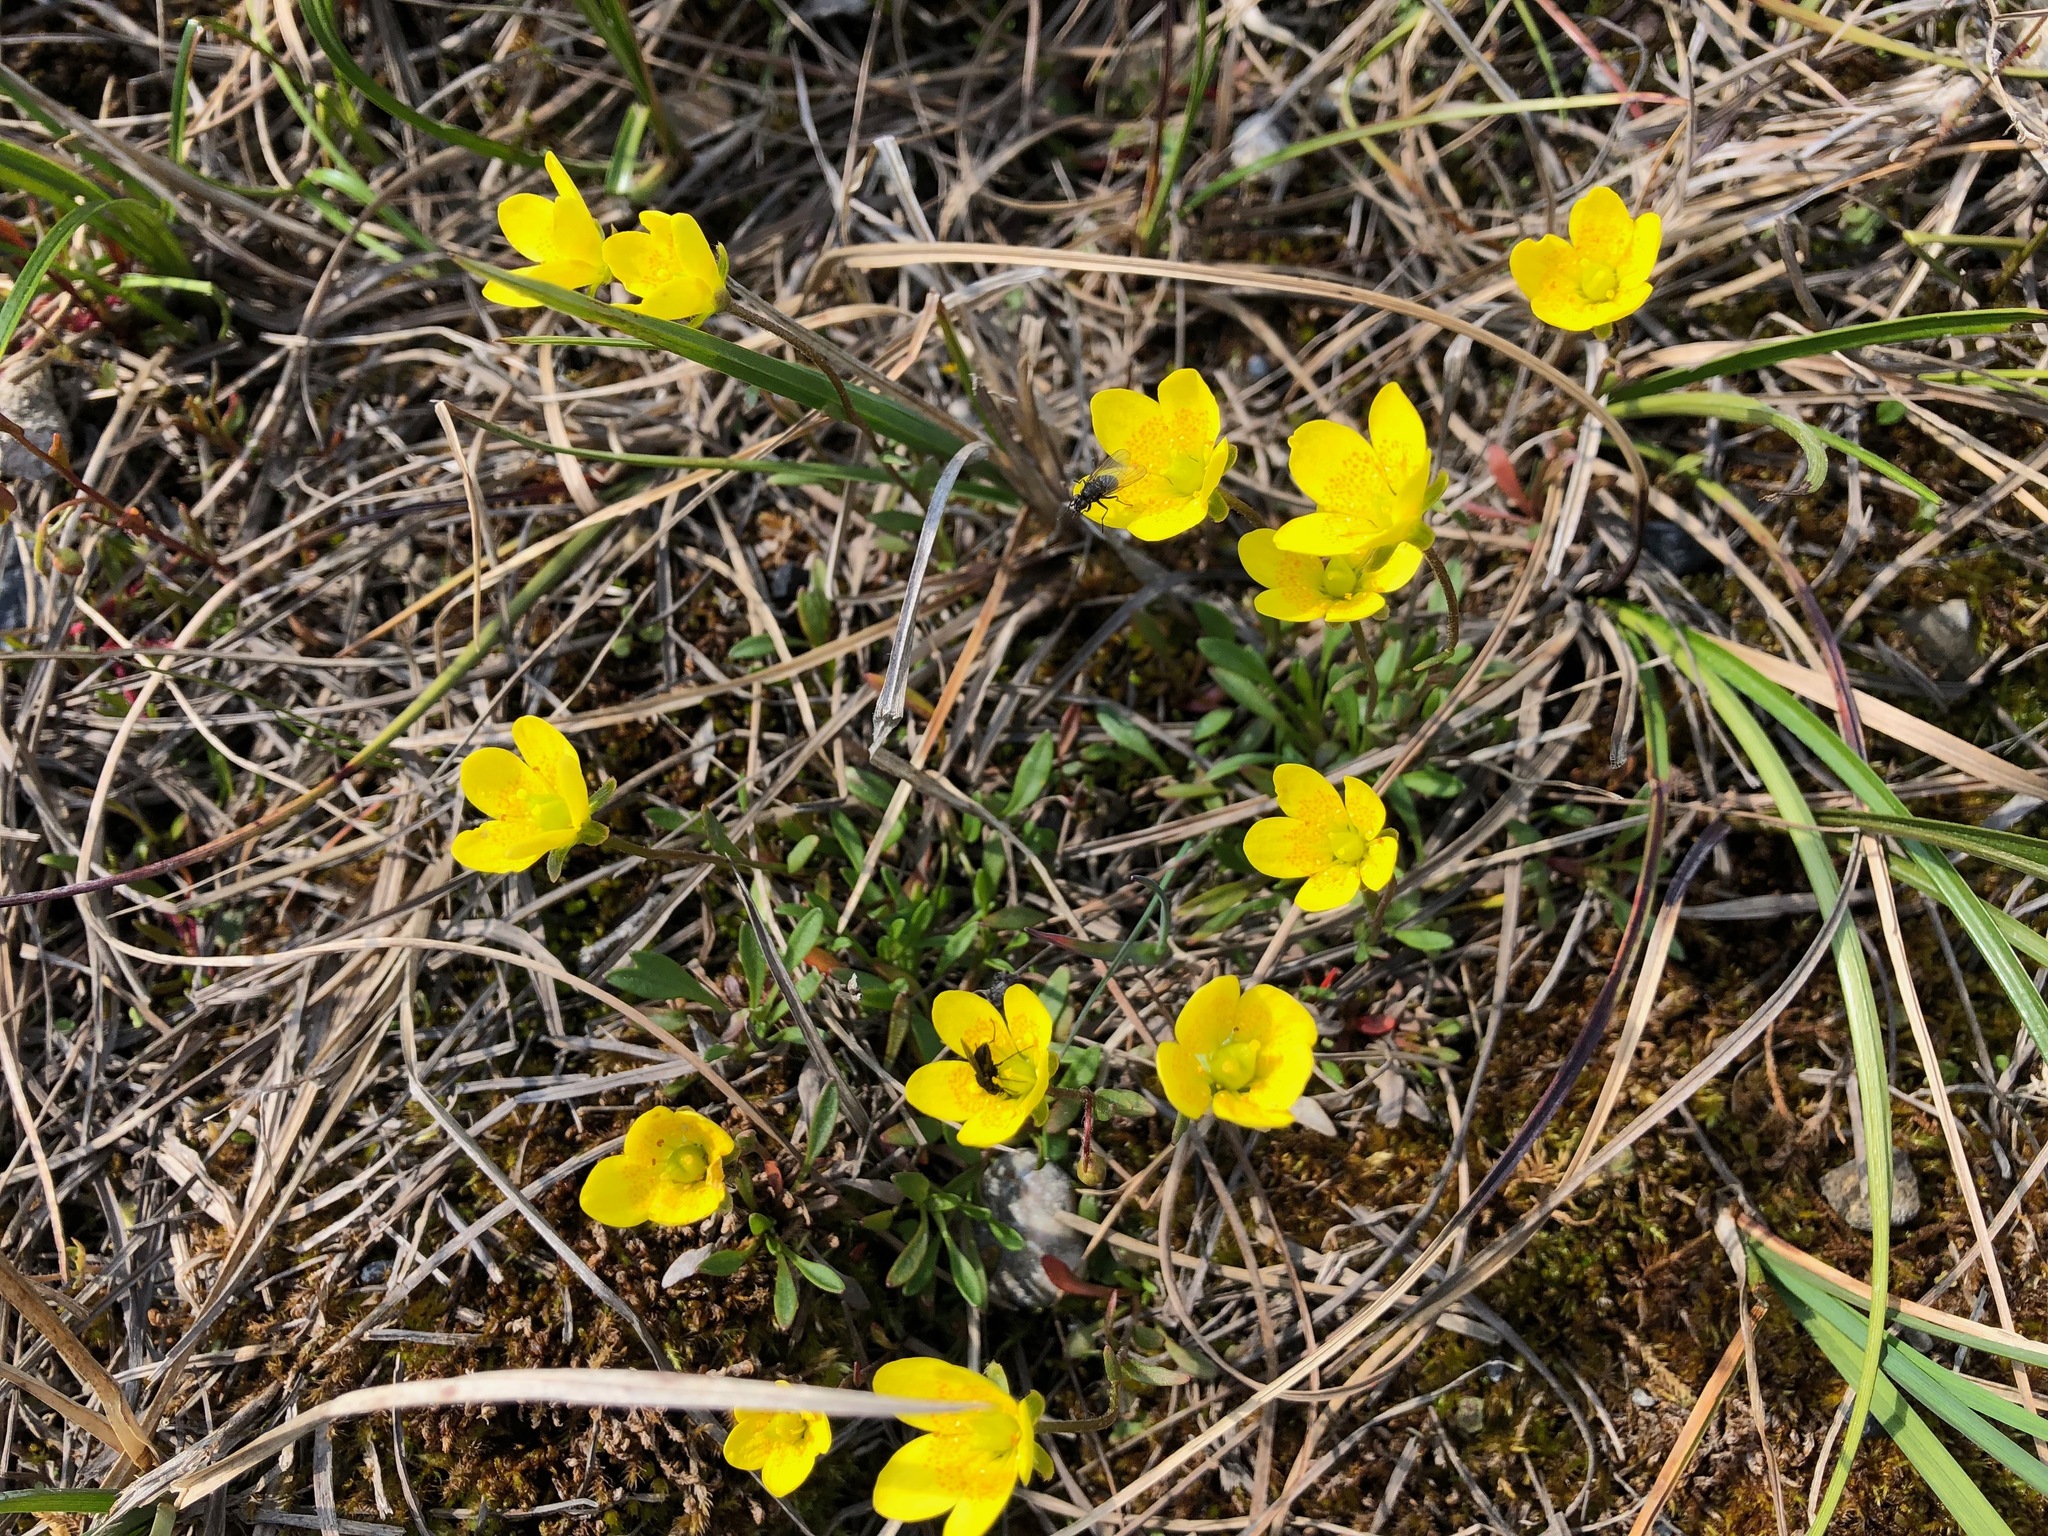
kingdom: Plantae
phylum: Tracheophyta
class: Magnoliopsida
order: Saxifragales
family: Saxifragaceae
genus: Saxifraga
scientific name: Saxifraga hirculus
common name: Yellow marsh saxifrage
